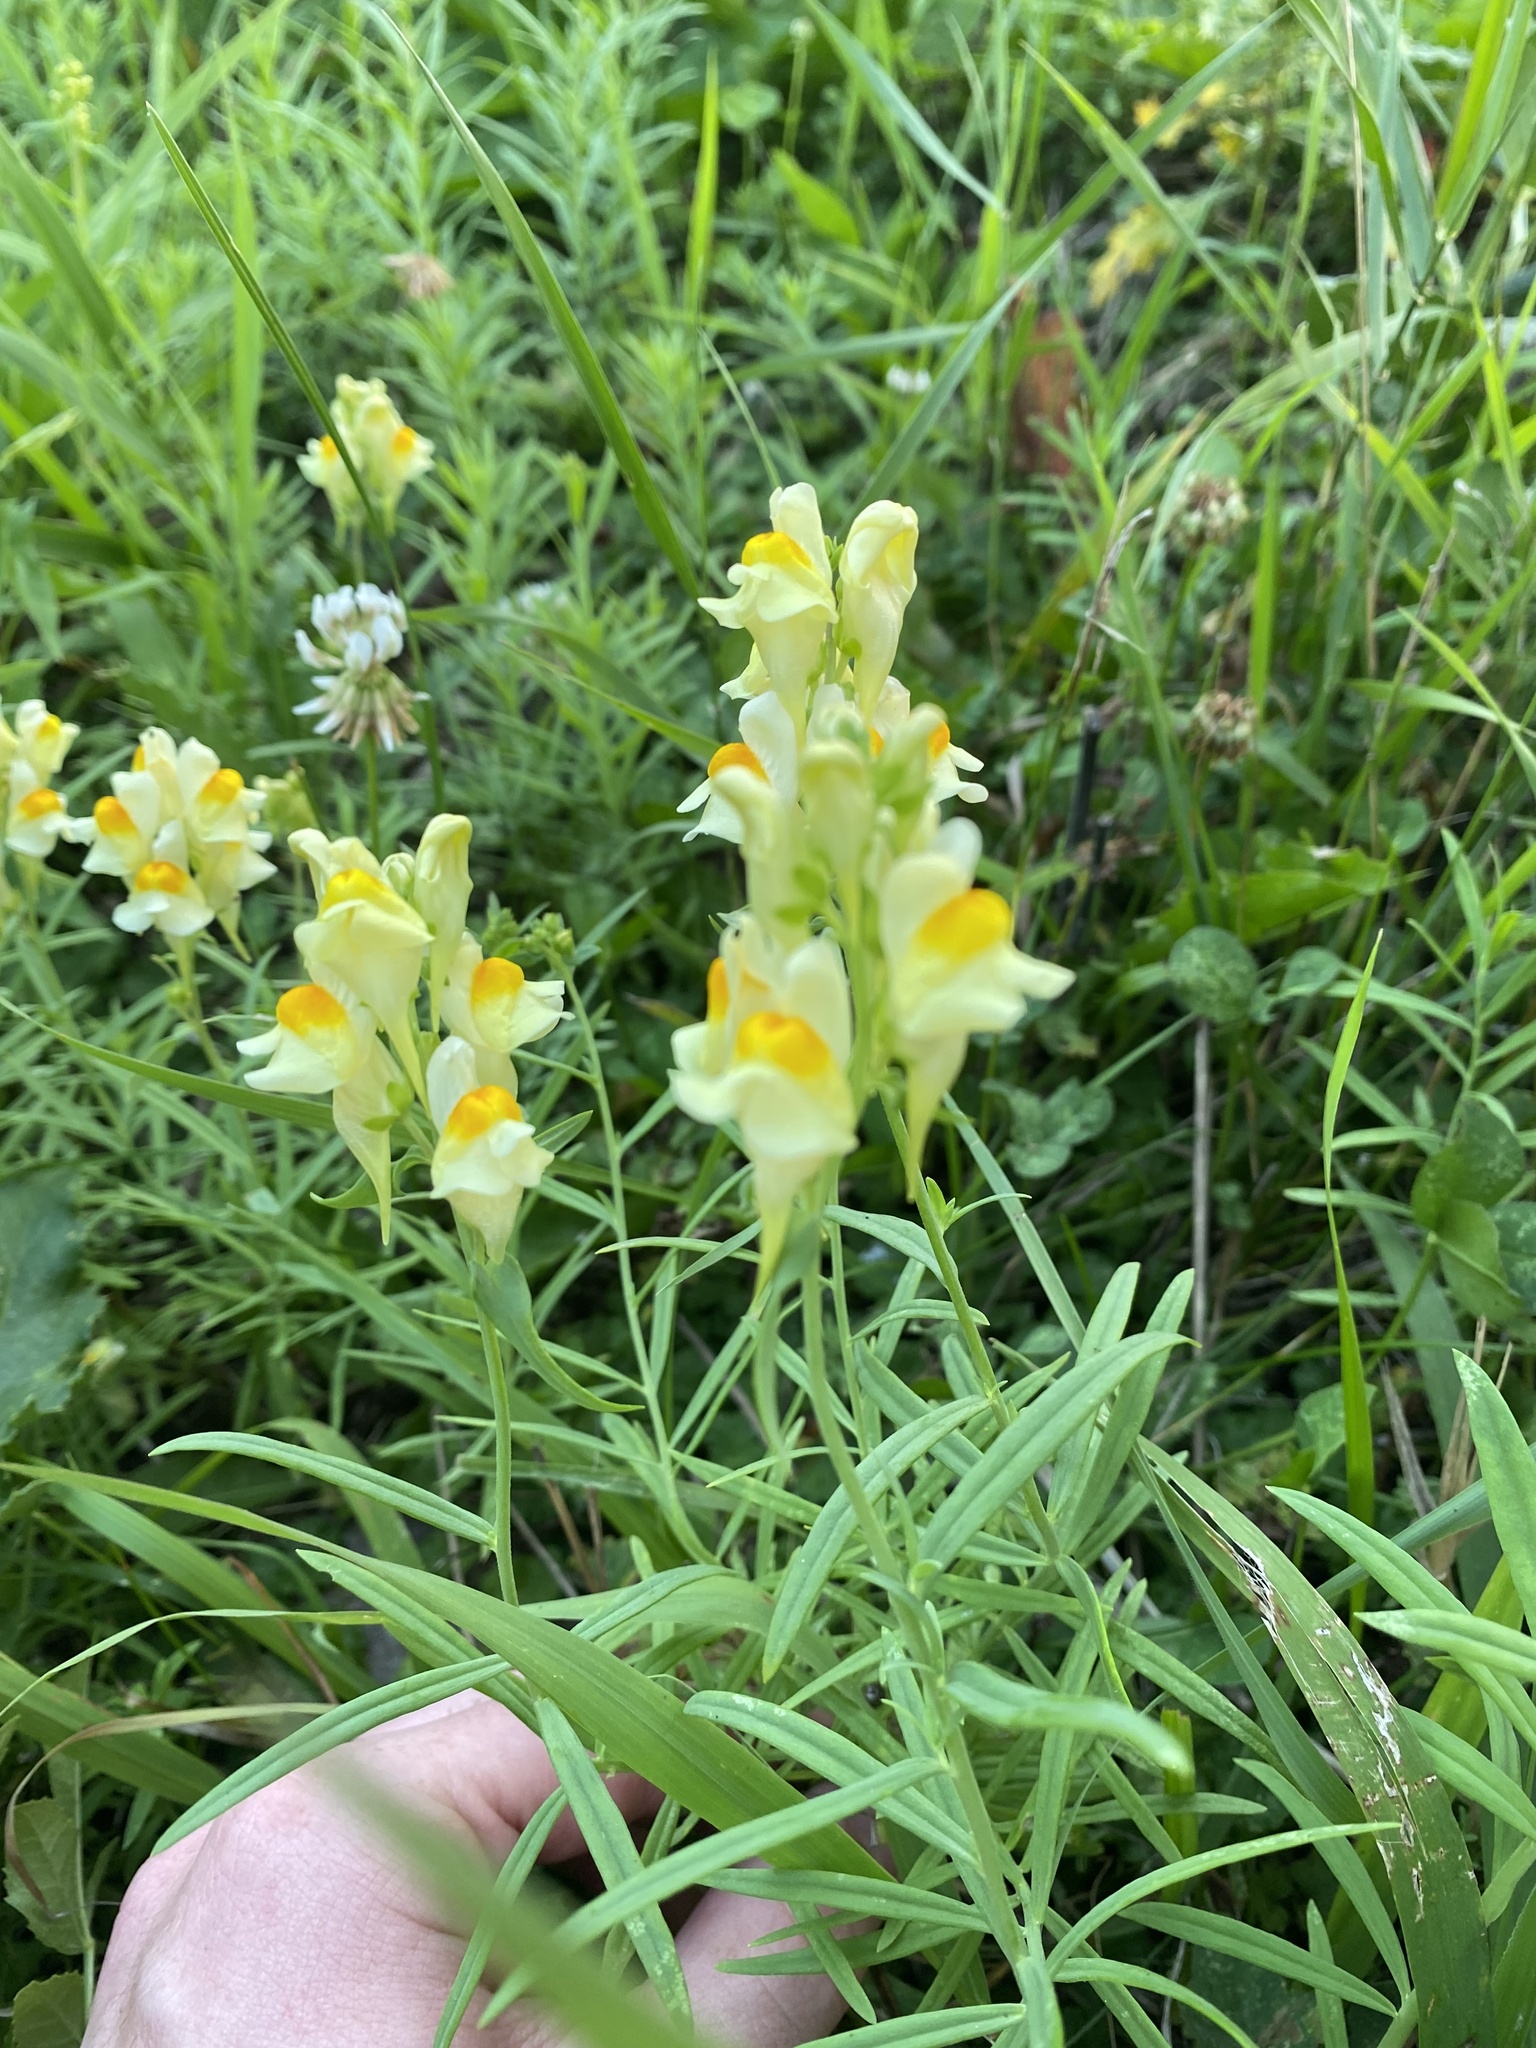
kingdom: Plantae
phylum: Tracheophyta
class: Magnoliopsida
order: Lamiales
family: Plantaginaceae
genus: Linaria
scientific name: Linaria vulgaris
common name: Butter and eggs
